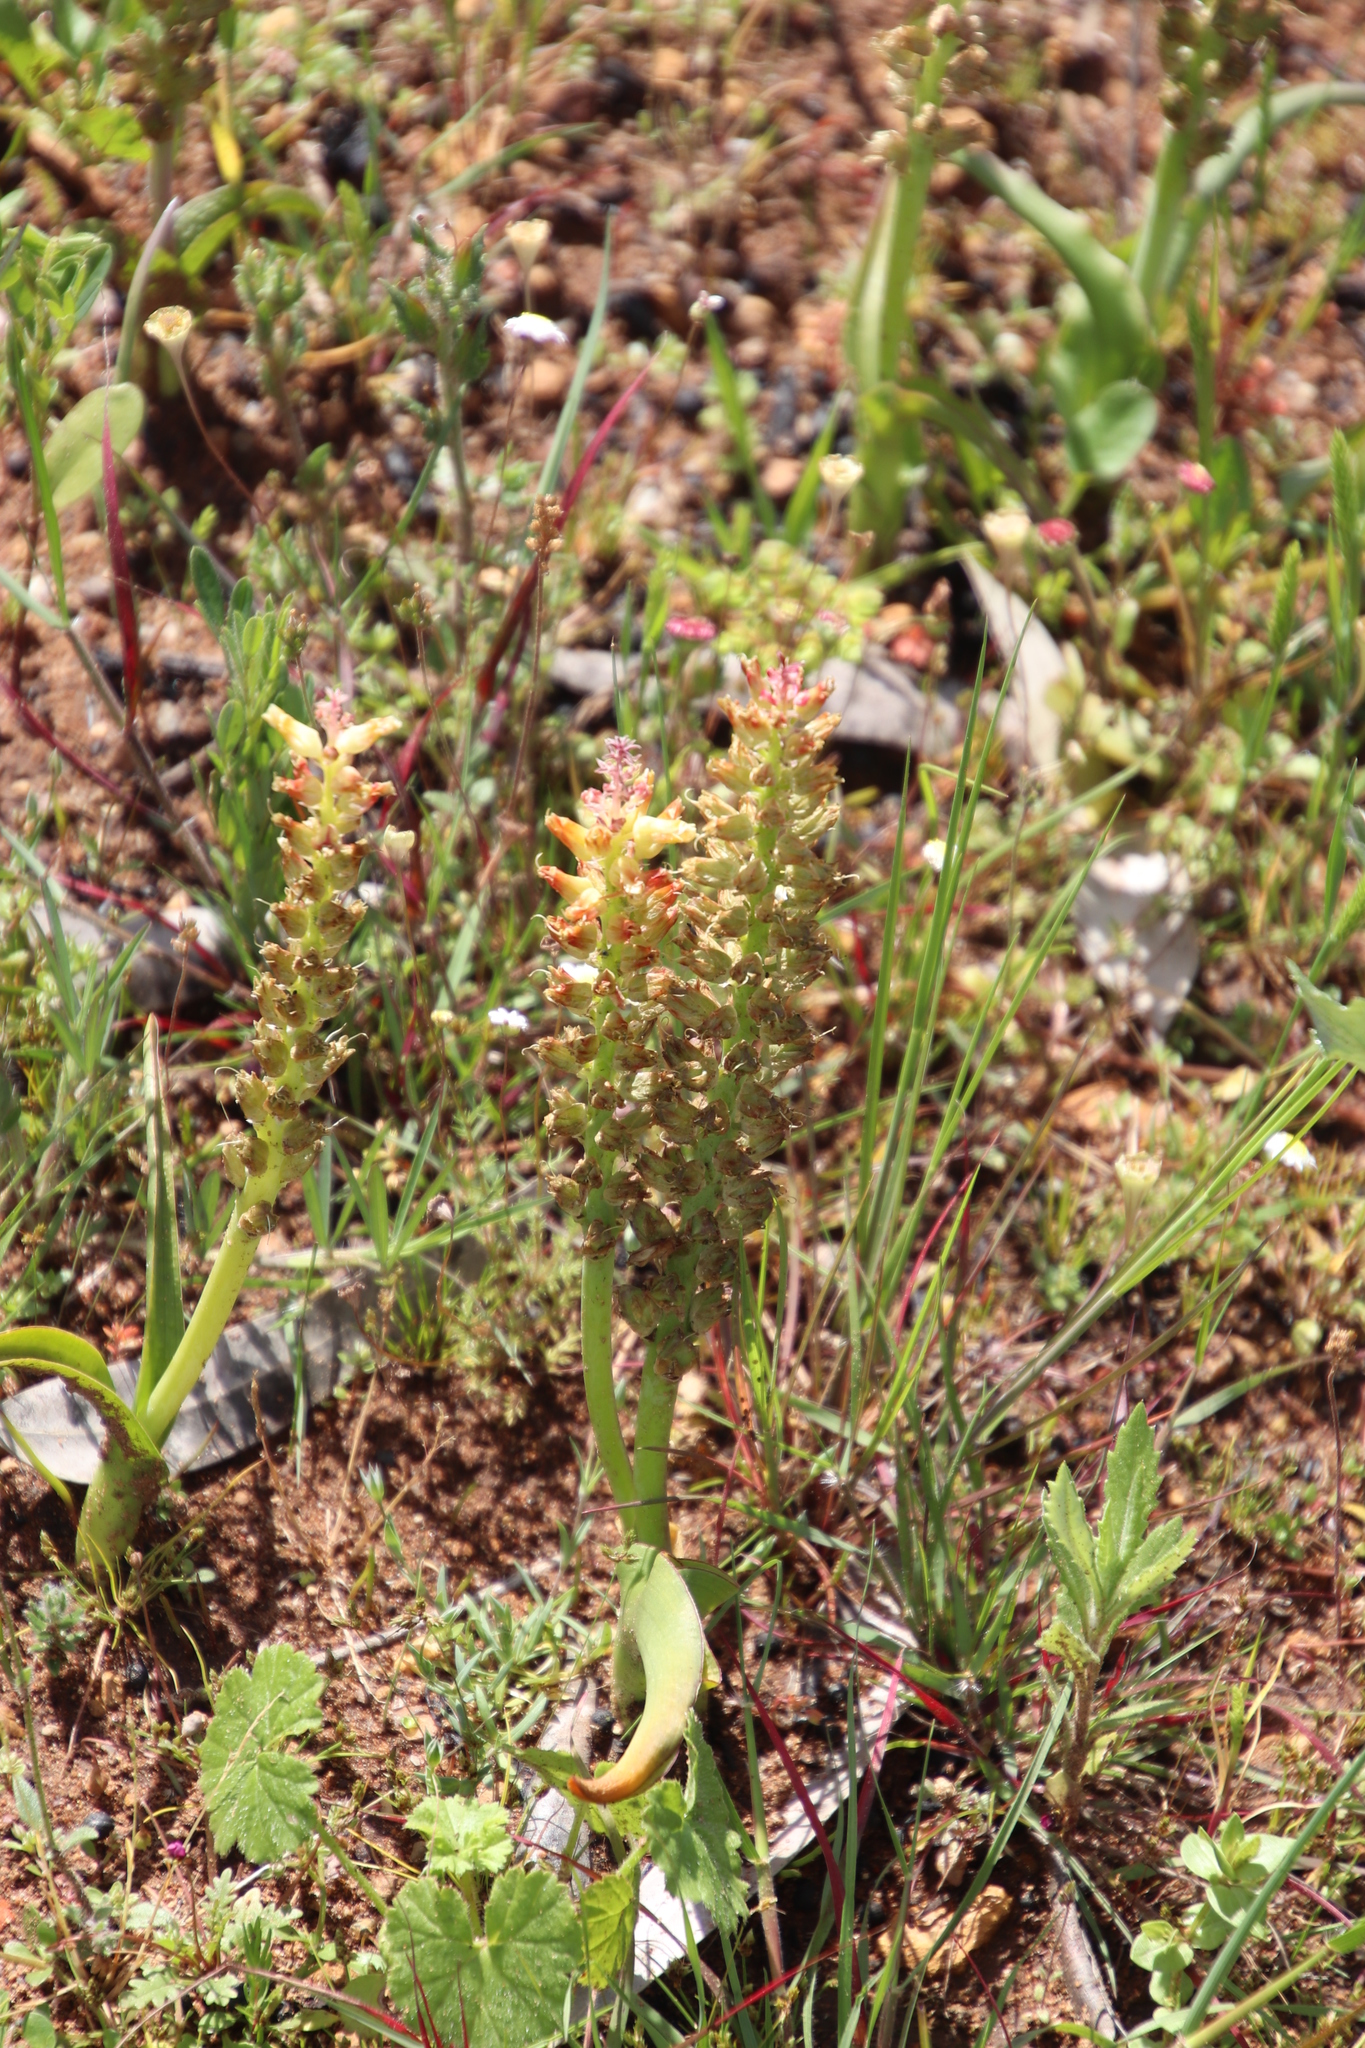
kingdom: Plantae
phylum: Tracheophyta
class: Liliopsida
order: Asparagales
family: Asparagaceae
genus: Lachenalia
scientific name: Lachenalia pallida
